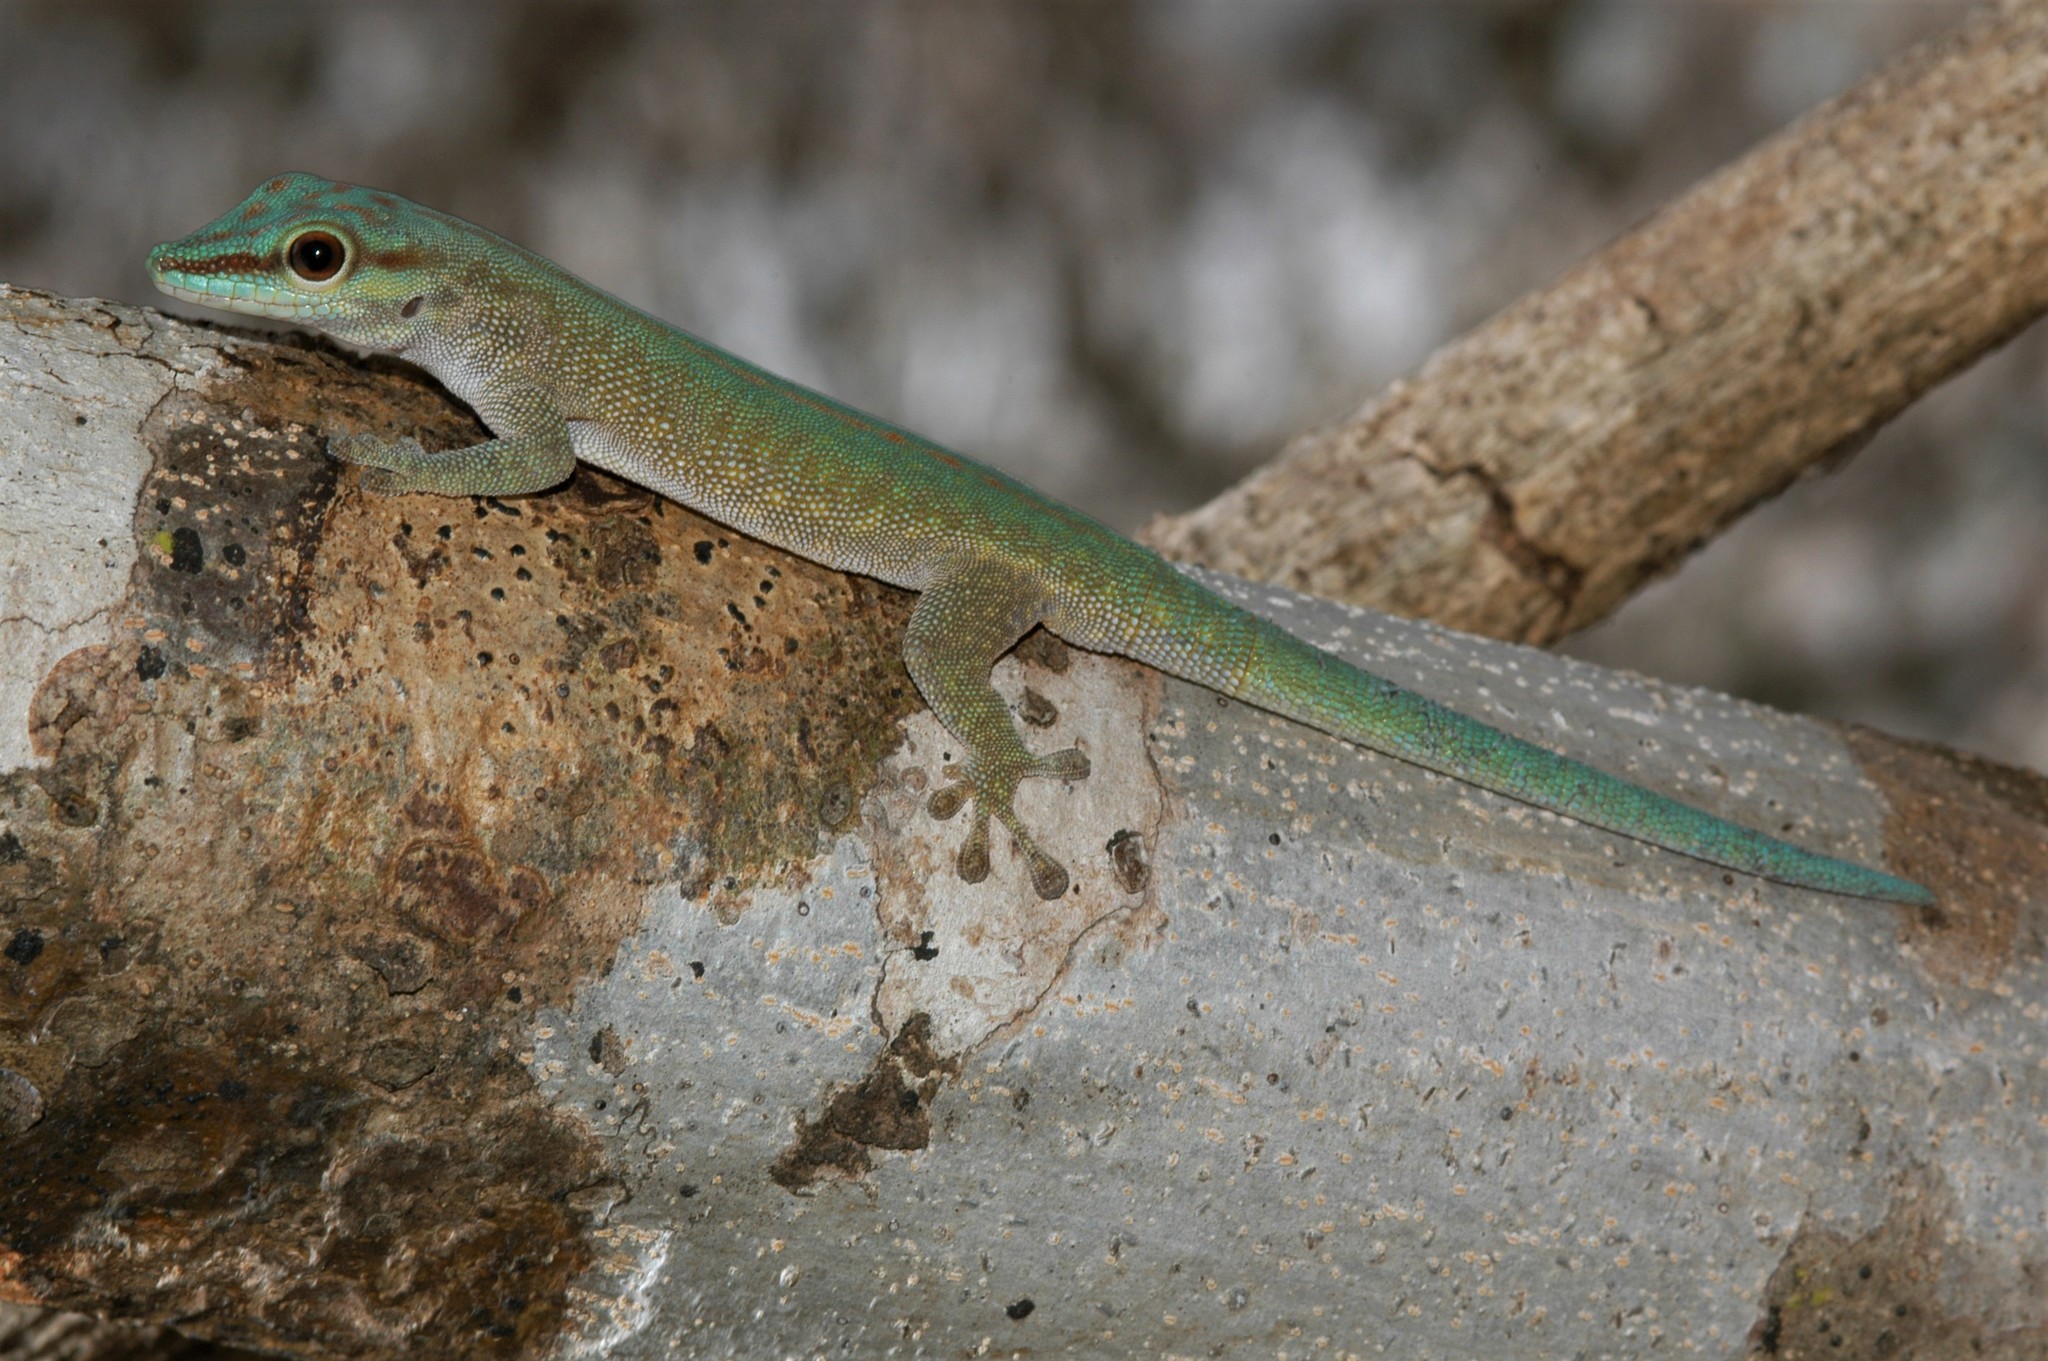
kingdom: Animalia
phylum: Chordata
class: Squamata
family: Gekkonidae
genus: Phelsuma
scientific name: Phelsuma abbotti
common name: Aldabra day gecko
